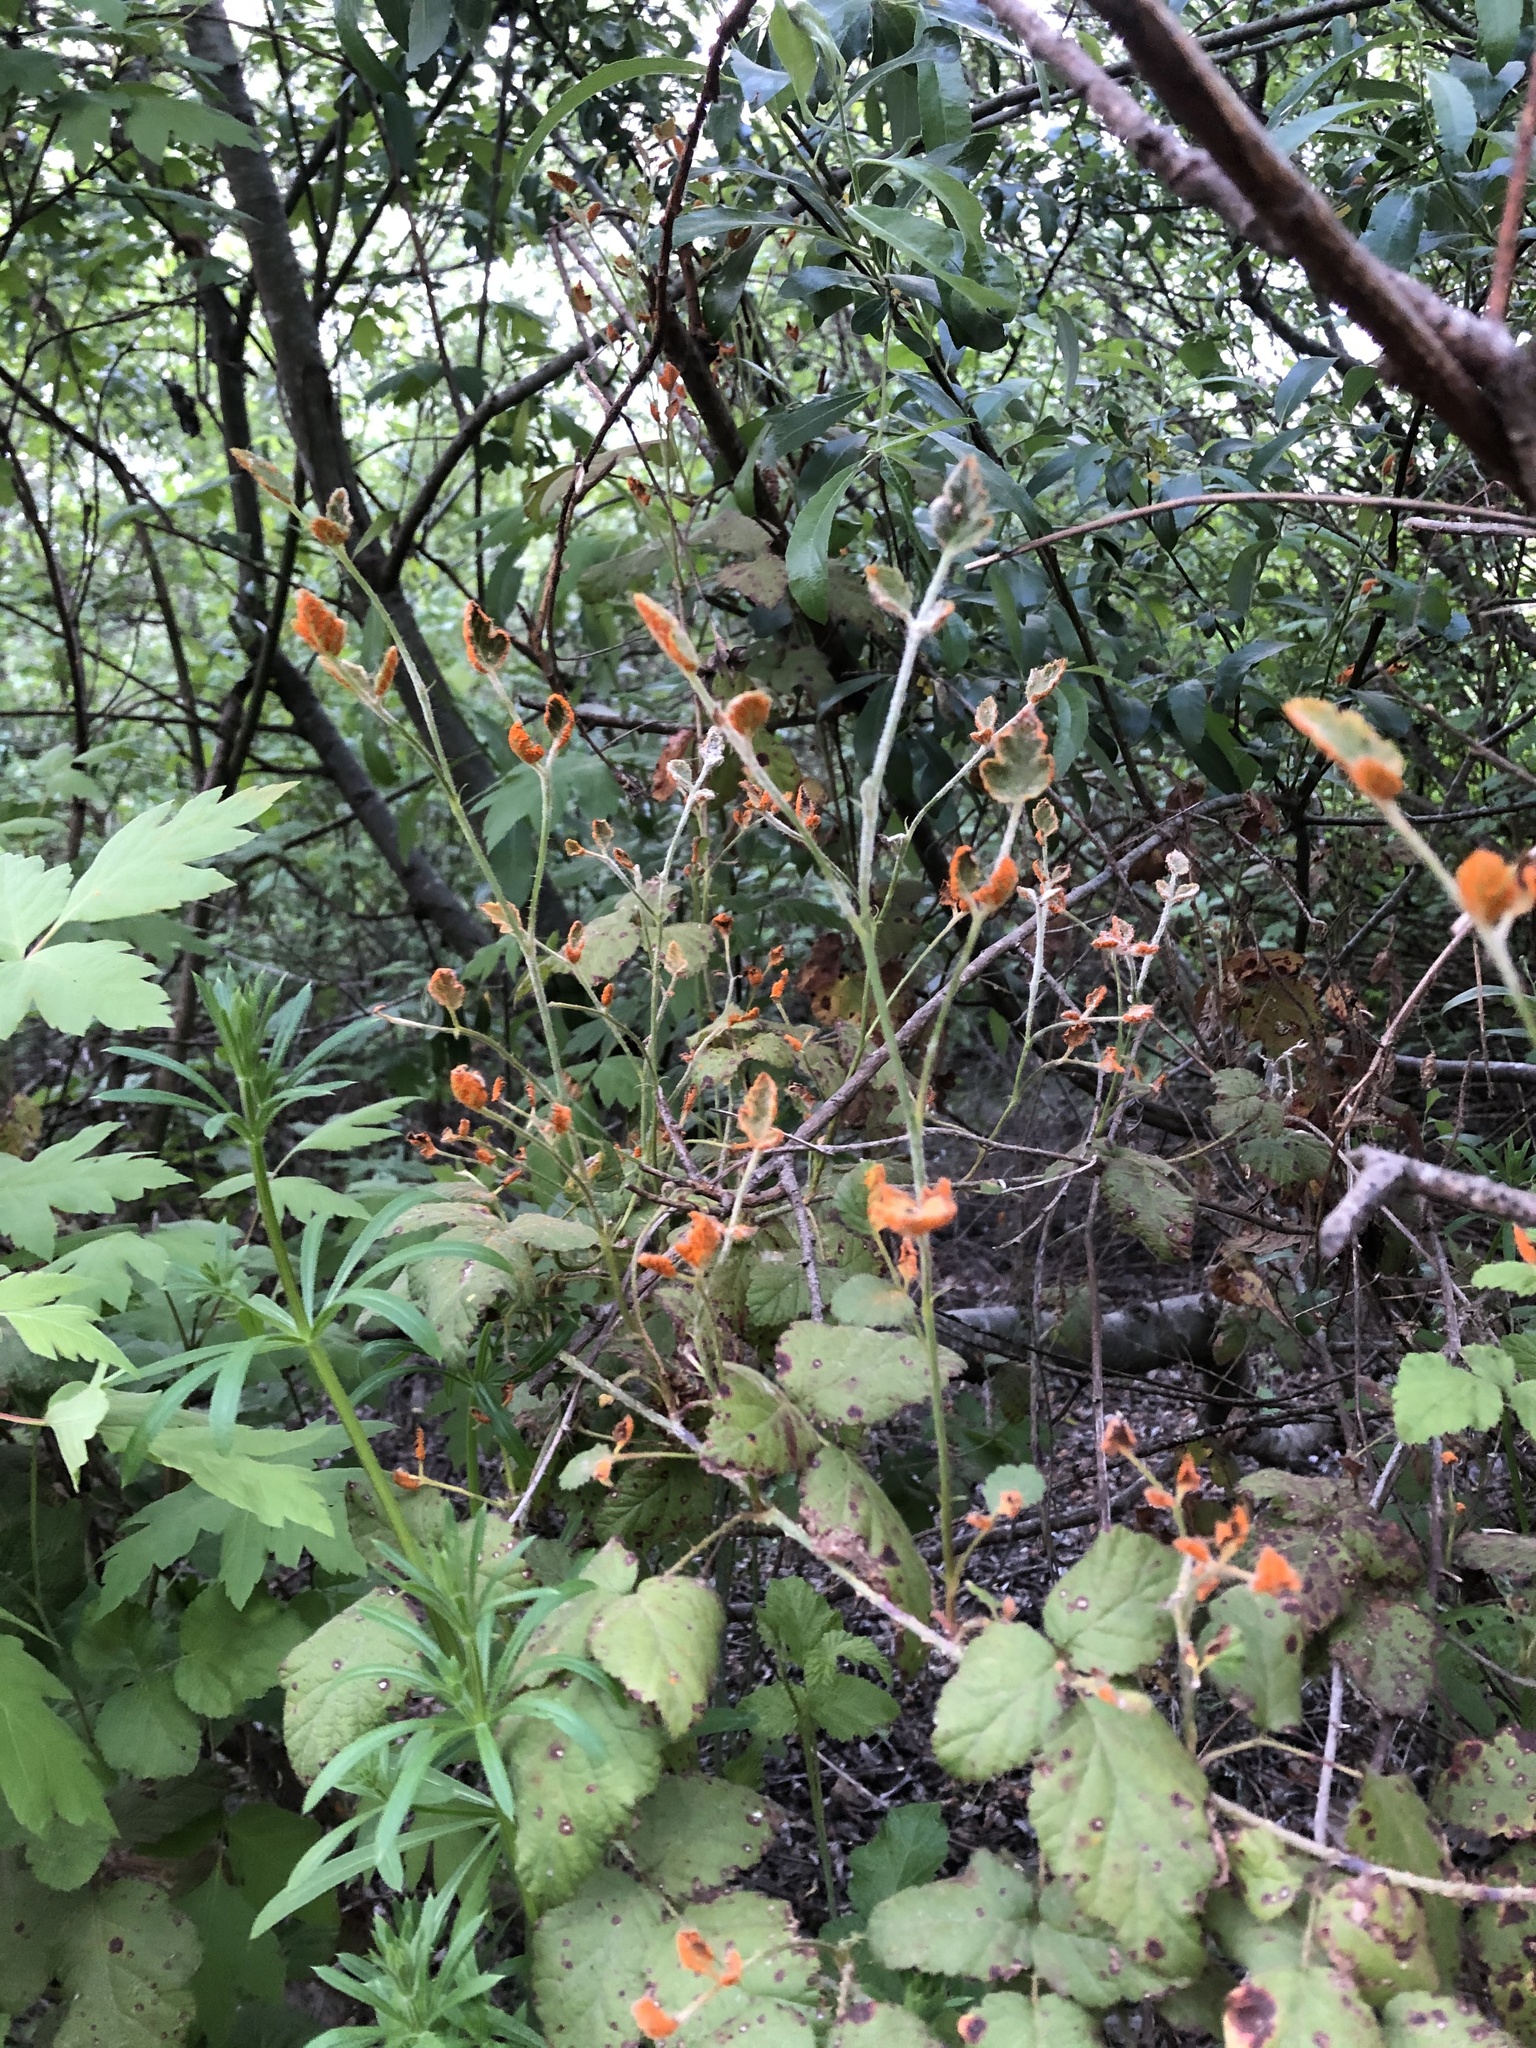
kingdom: Fungi
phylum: Basidiomycota
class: Pucciniomycetes
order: Pucciniales
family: Phragmidiaceae
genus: Arthuriomyces
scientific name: Arthuriomyces peckianus
